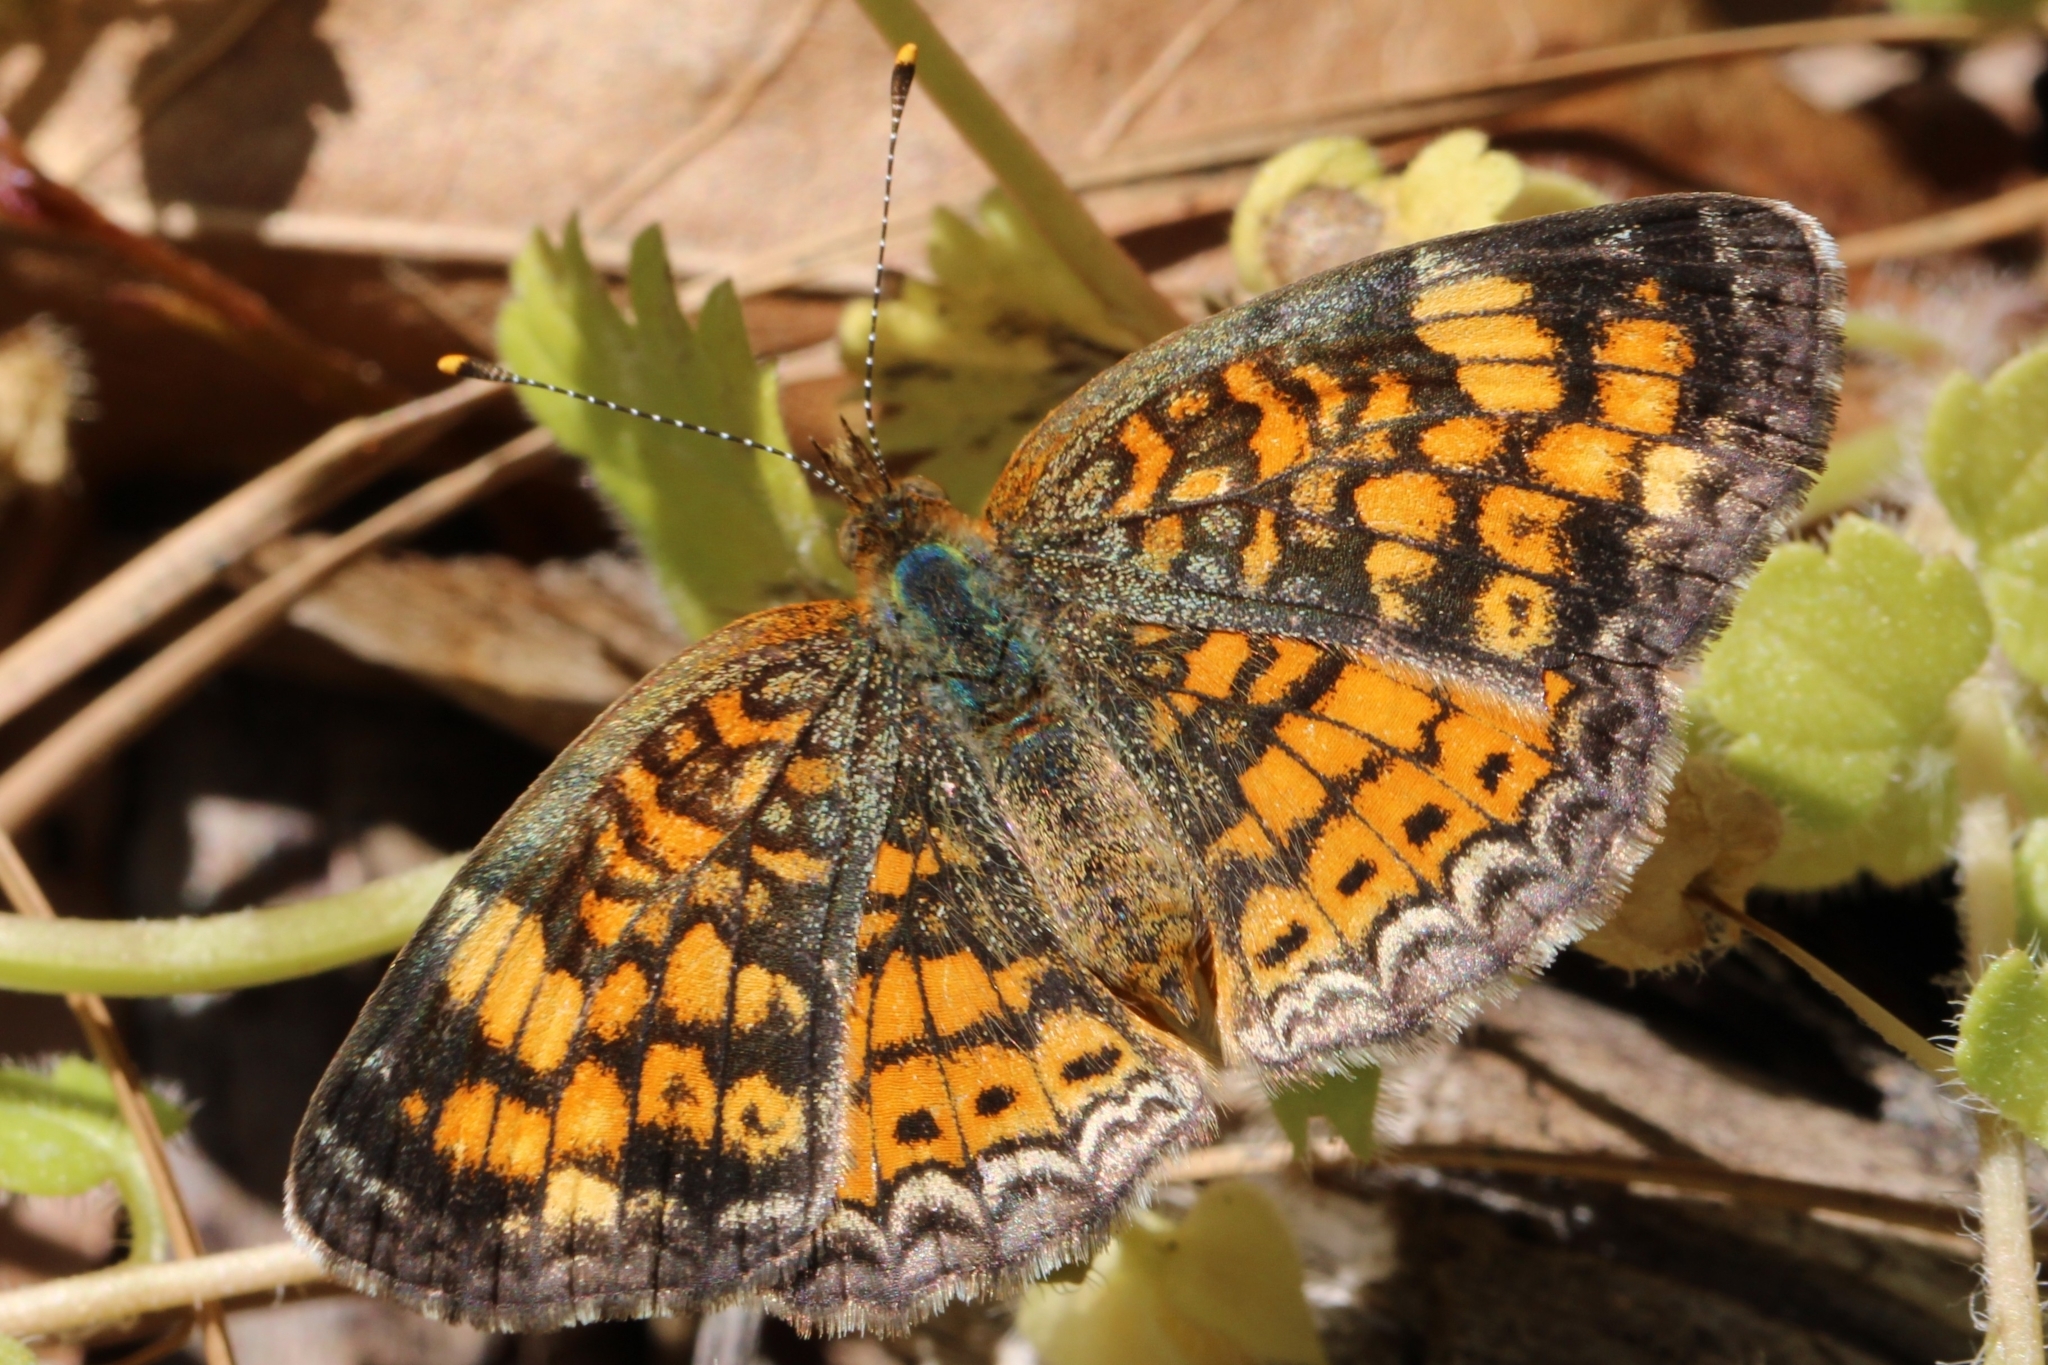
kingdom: Animalia
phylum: Arthropoda
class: Insecta
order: Lepidoptera
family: Nymphalidae
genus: Phyciodes
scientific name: Phyciodes tharos
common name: Pearl crescent
